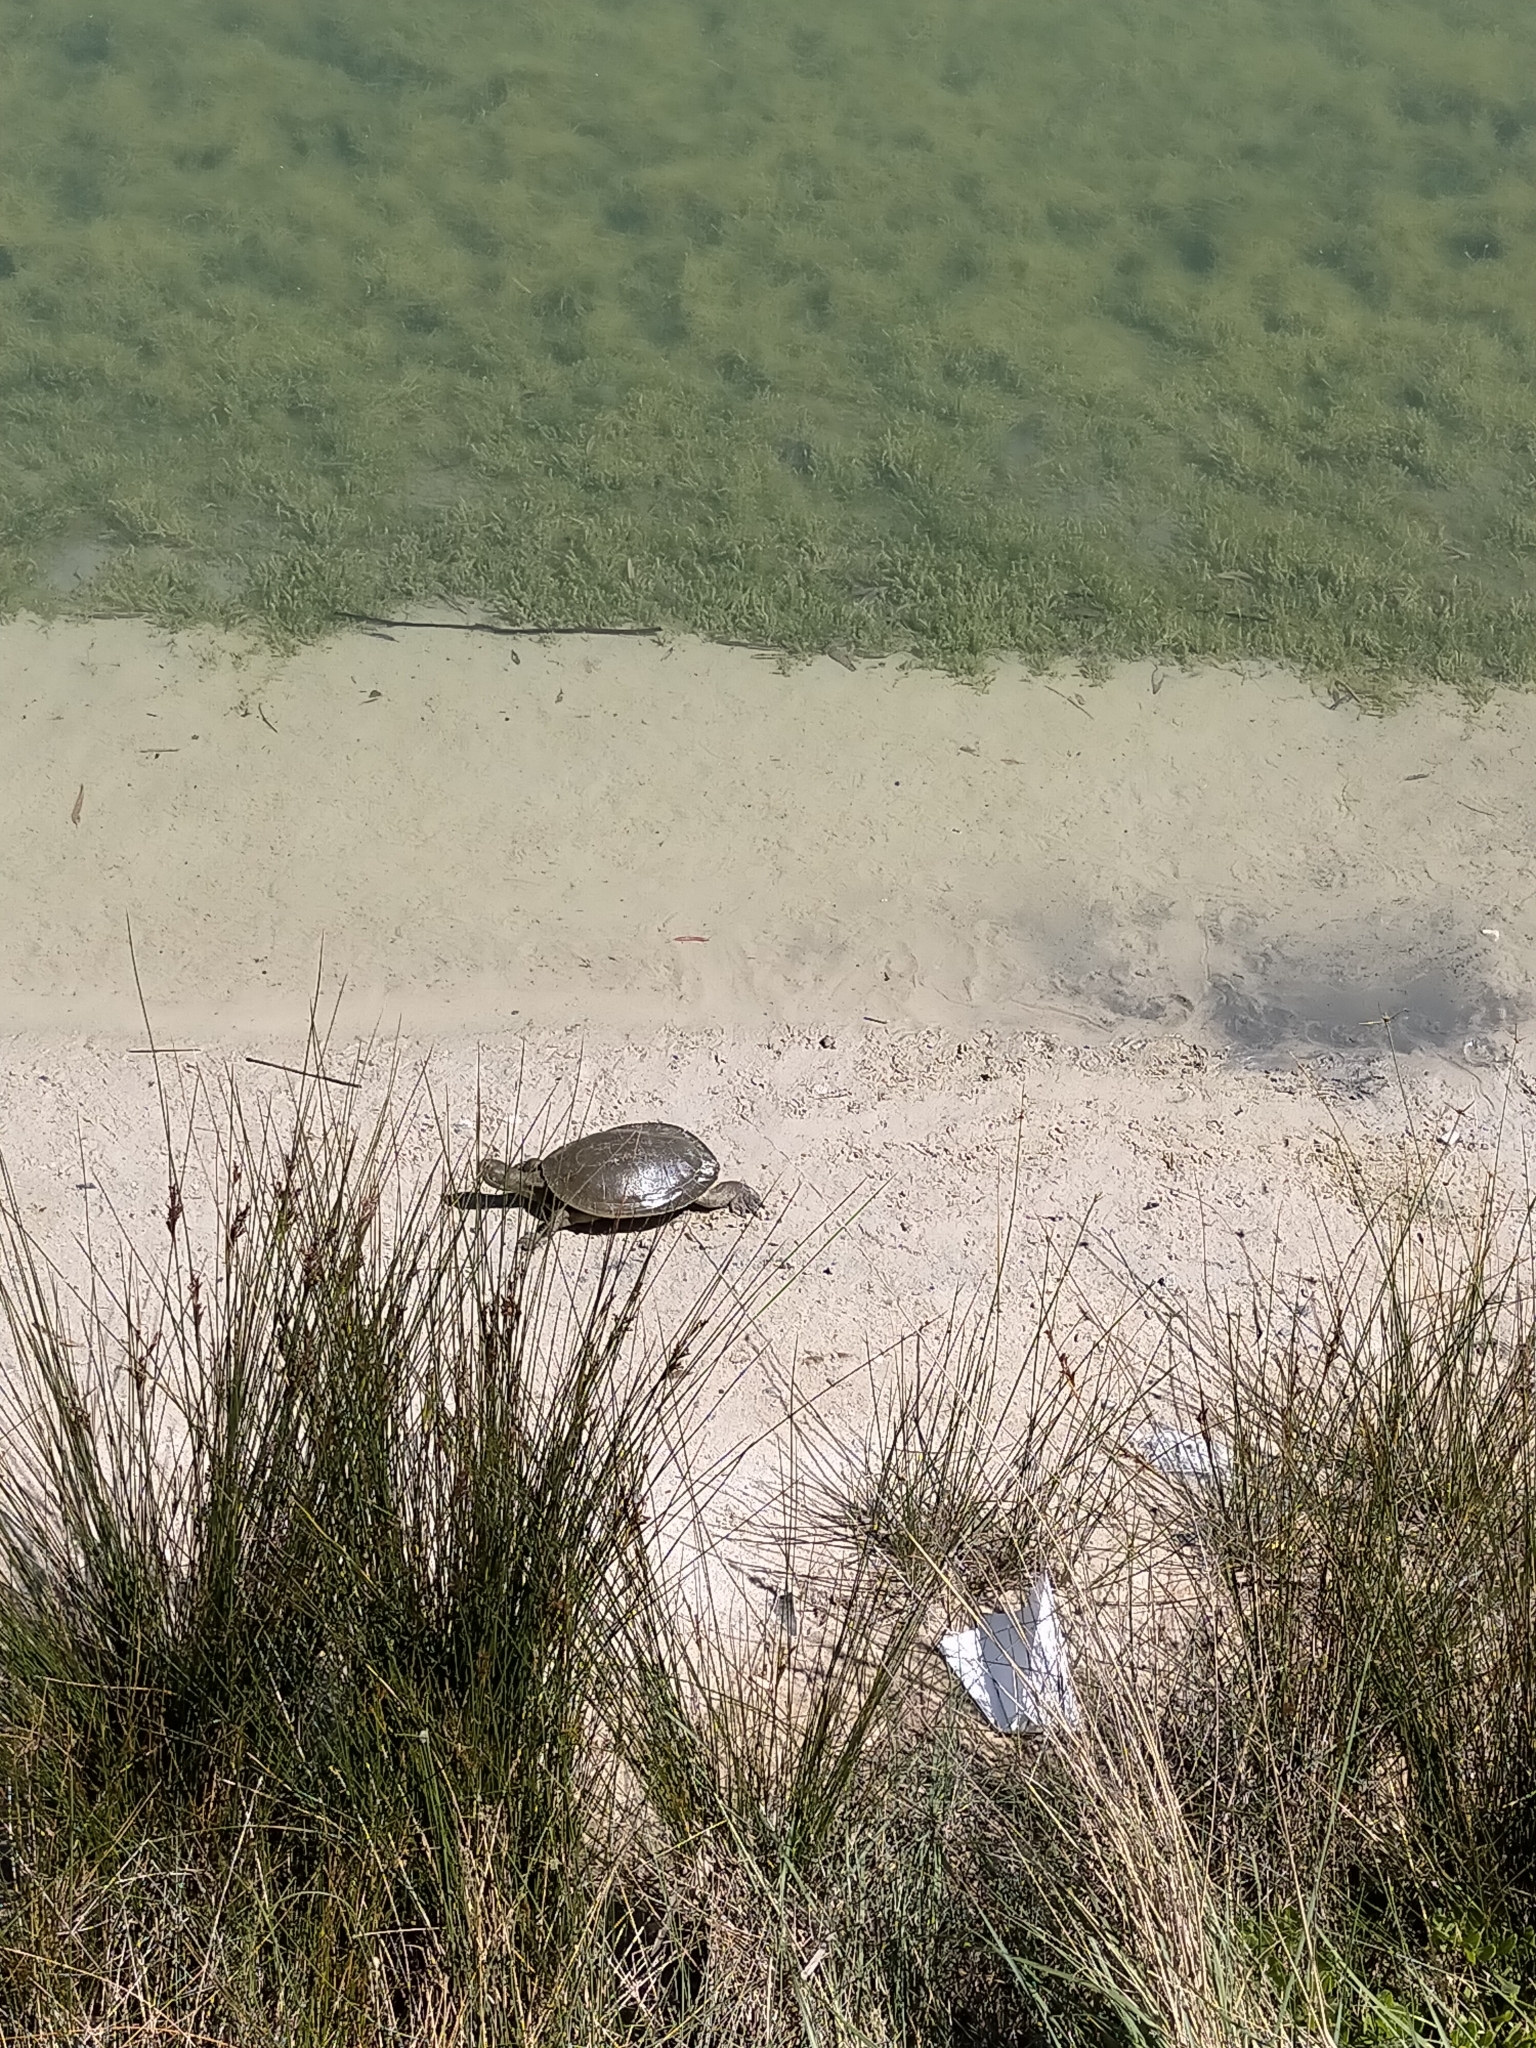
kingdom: Animalia
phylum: Chordata
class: Testudines
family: Chelidae
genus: Emydura
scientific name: Emydura macquarii
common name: Murray river turtle
